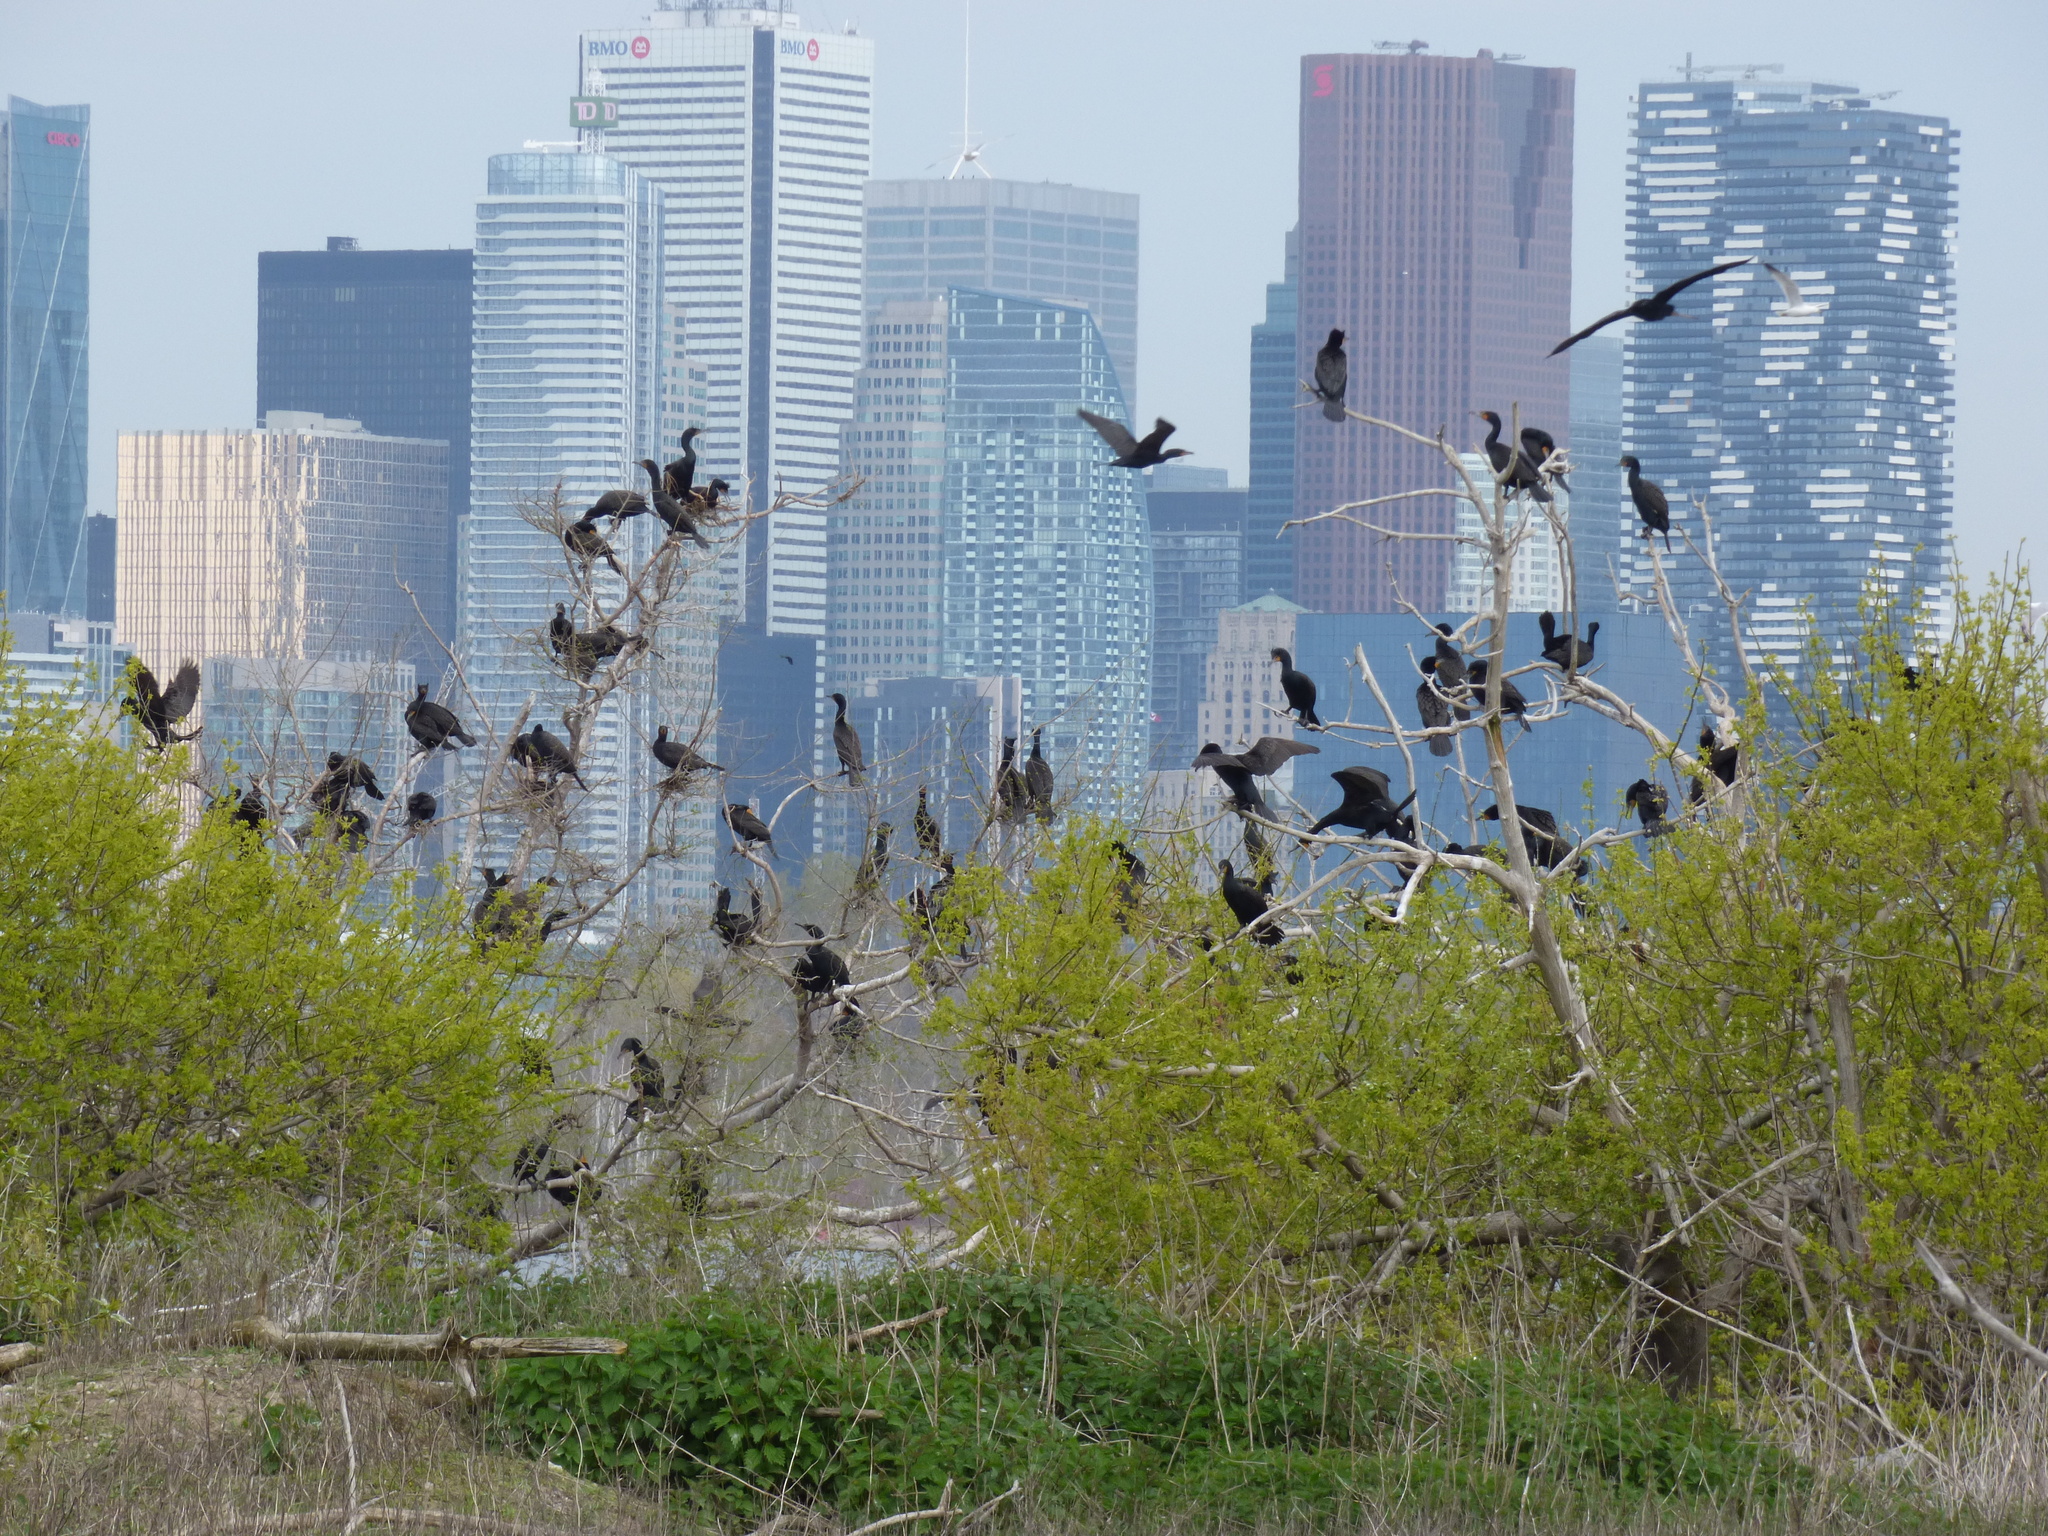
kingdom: Animalia
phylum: Chordata
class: Aves
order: Suliformes
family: Phalacrocoracidae
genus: Phalacrocorax
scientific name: Phalacrocorax auritus
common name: Double-crested cormorant
